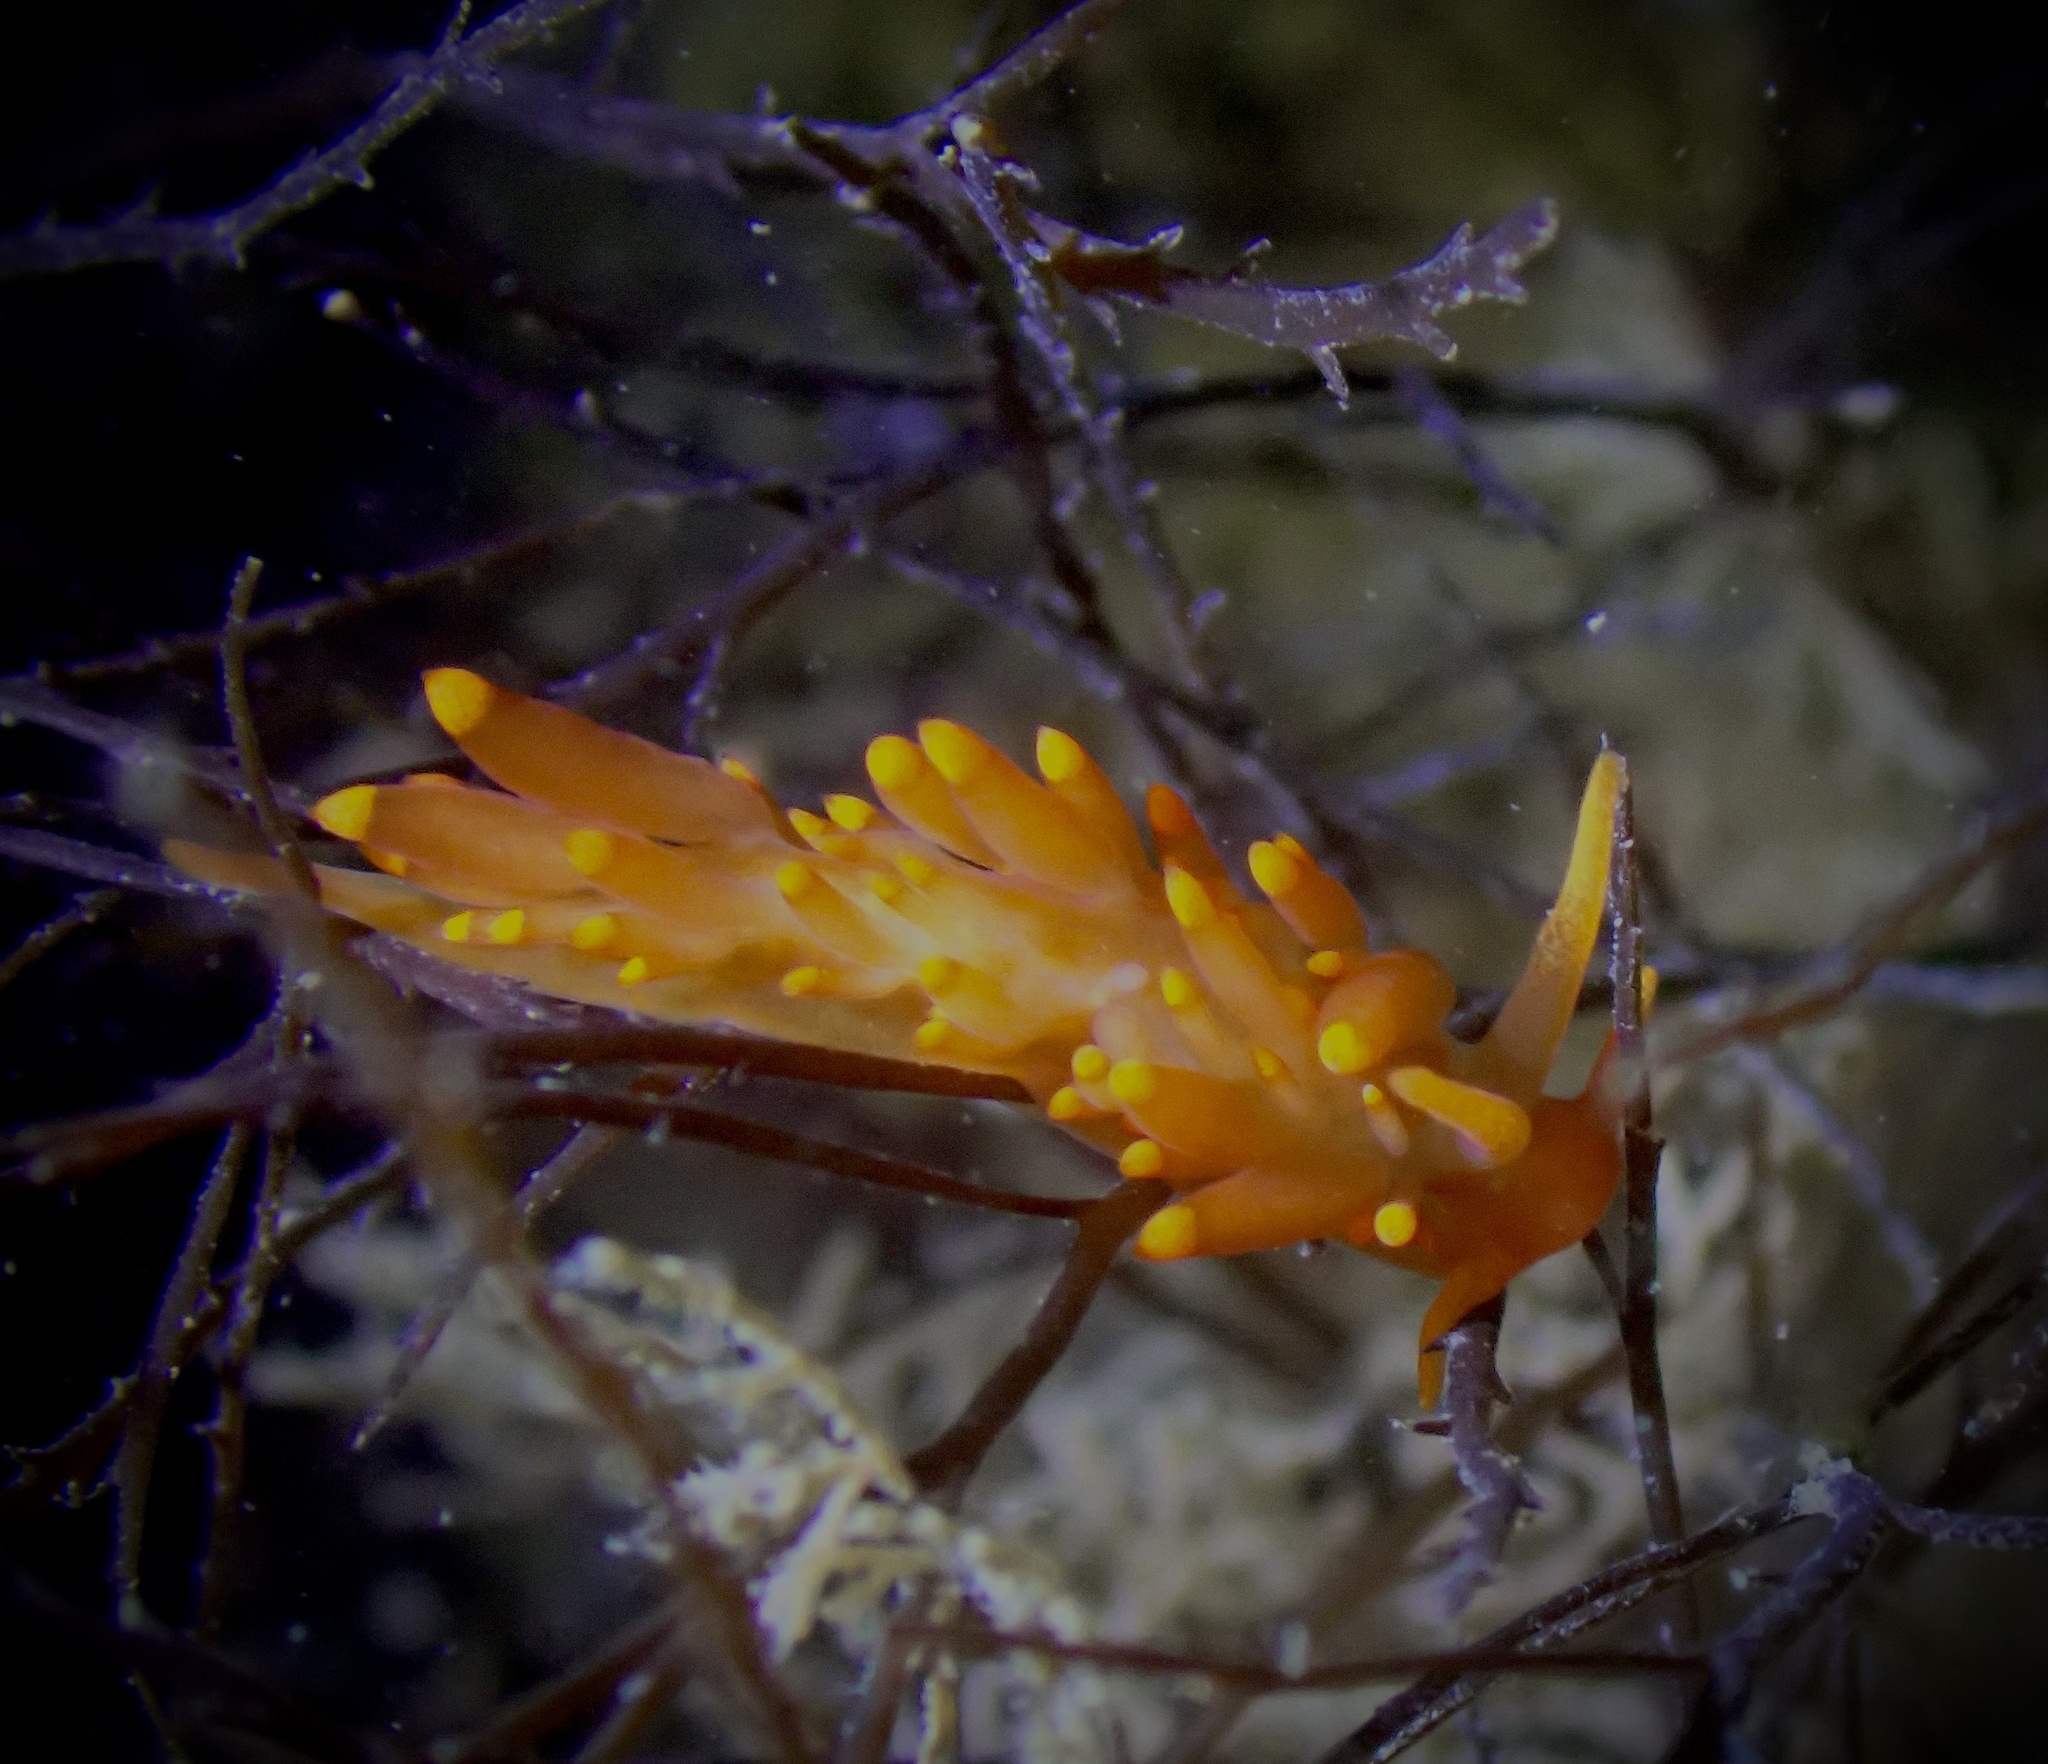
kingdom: Animalia
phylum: Mollusca
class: Gastropoda
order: Nudibranchia
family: Eubranchidae
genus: Amphorina
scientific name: Amphorina andra
